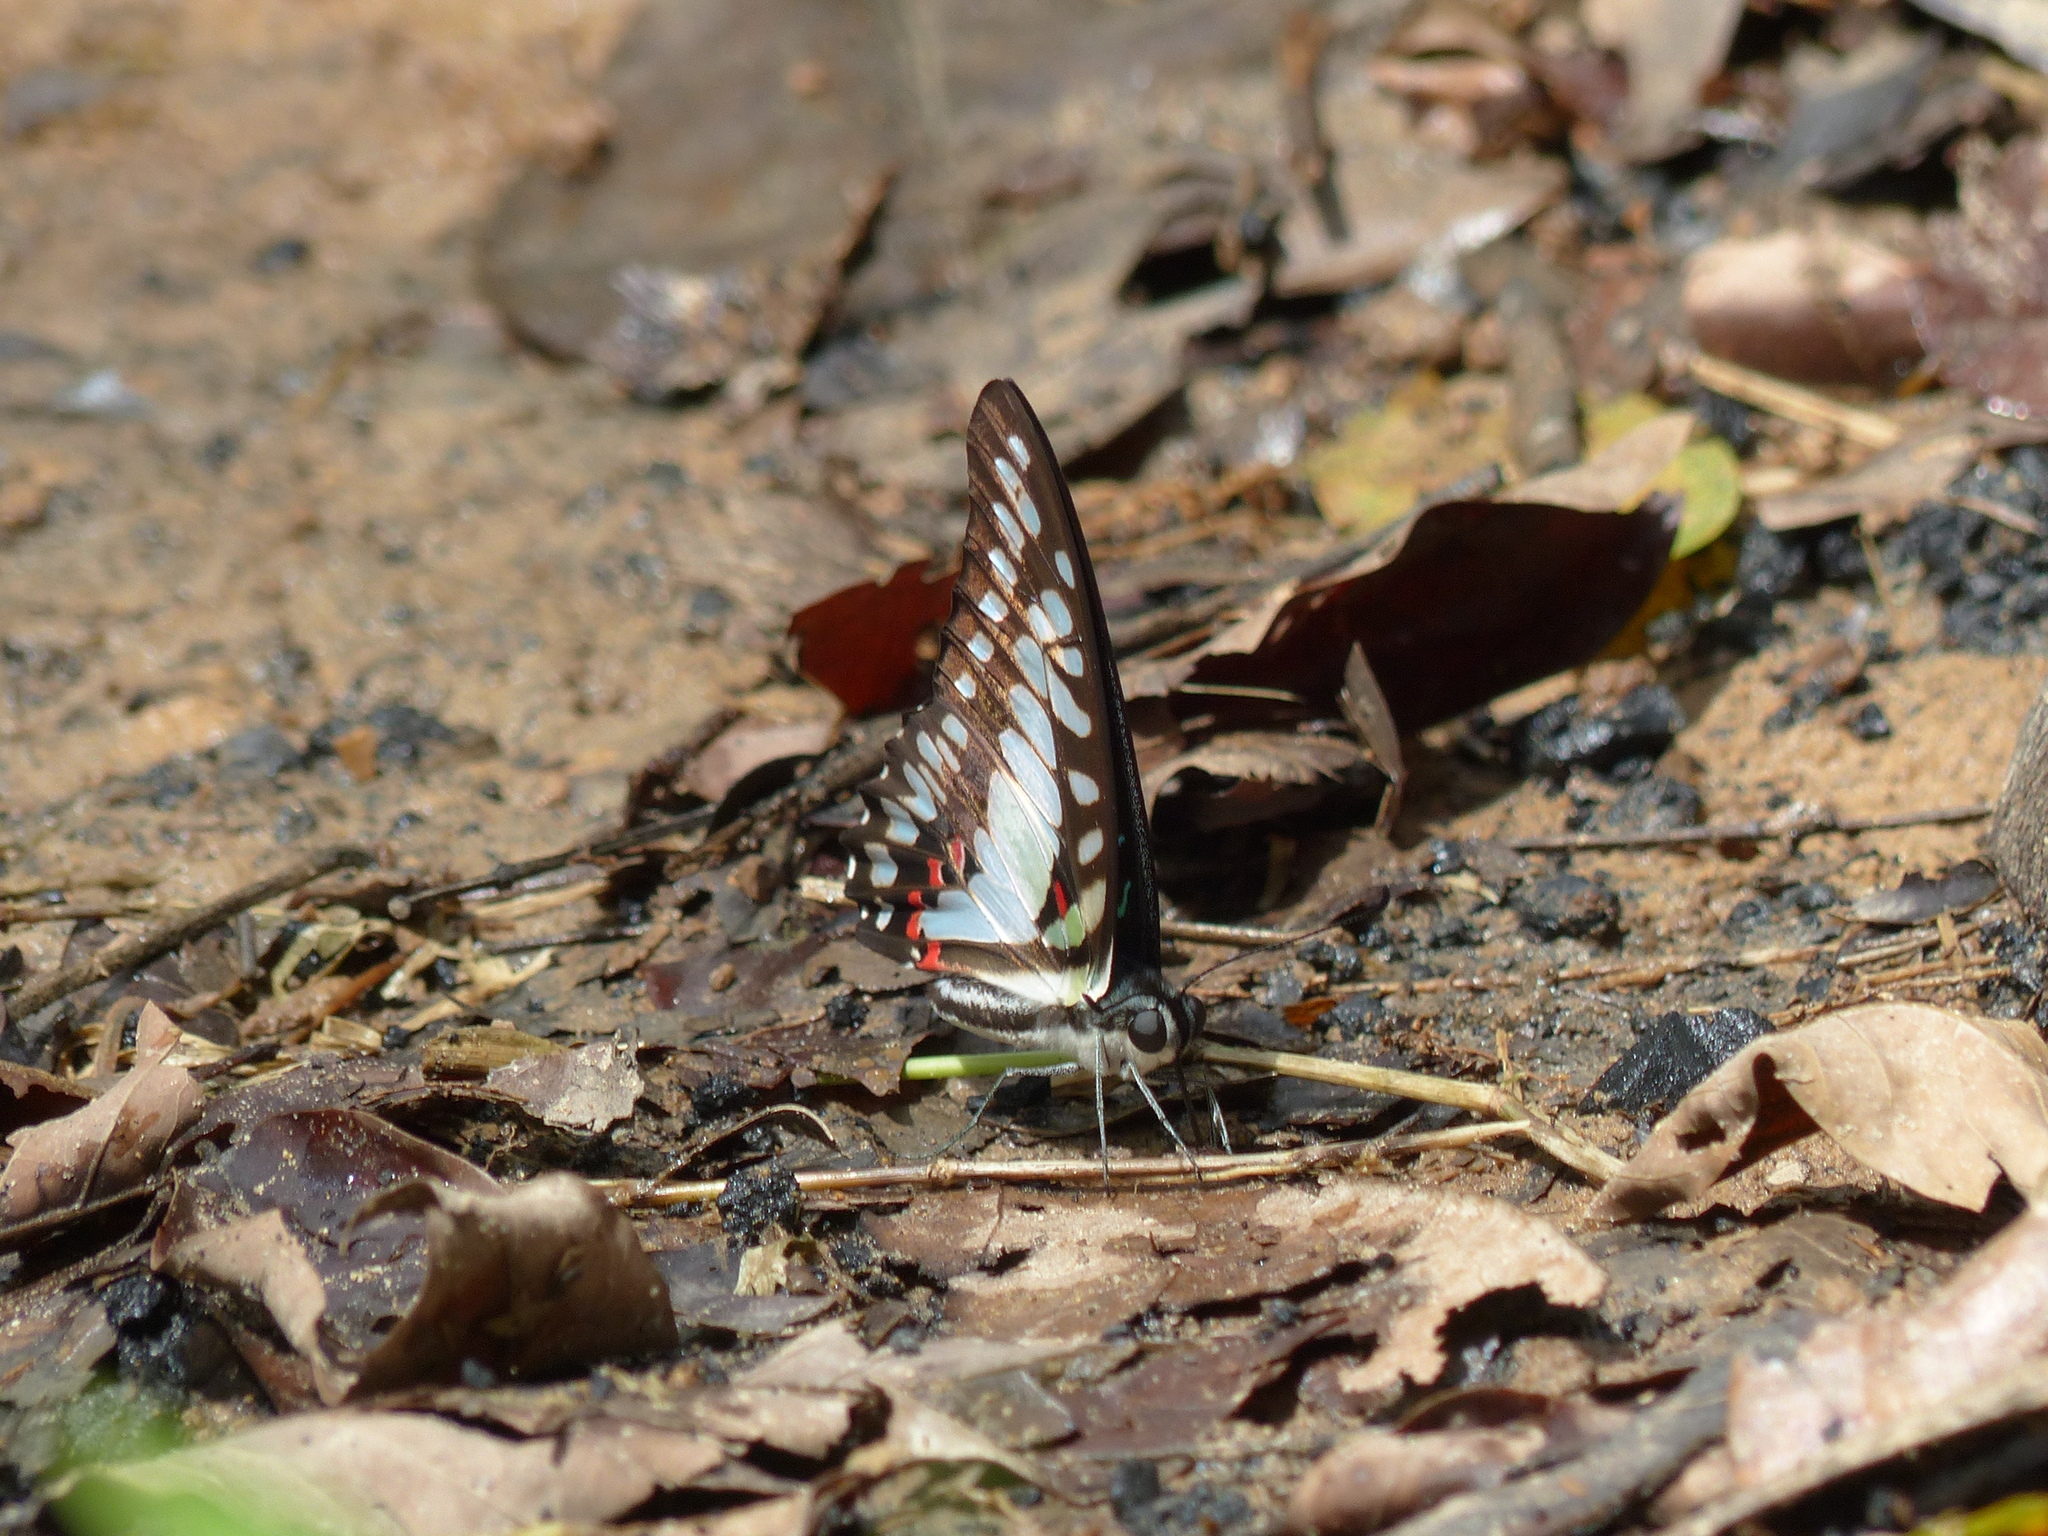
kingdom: Animalia
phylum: Arthropoda
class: Insecta
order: Lepidoptera
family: Papilionidae
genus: Graphium
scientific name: Graphium eurypylus
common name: Great jay
